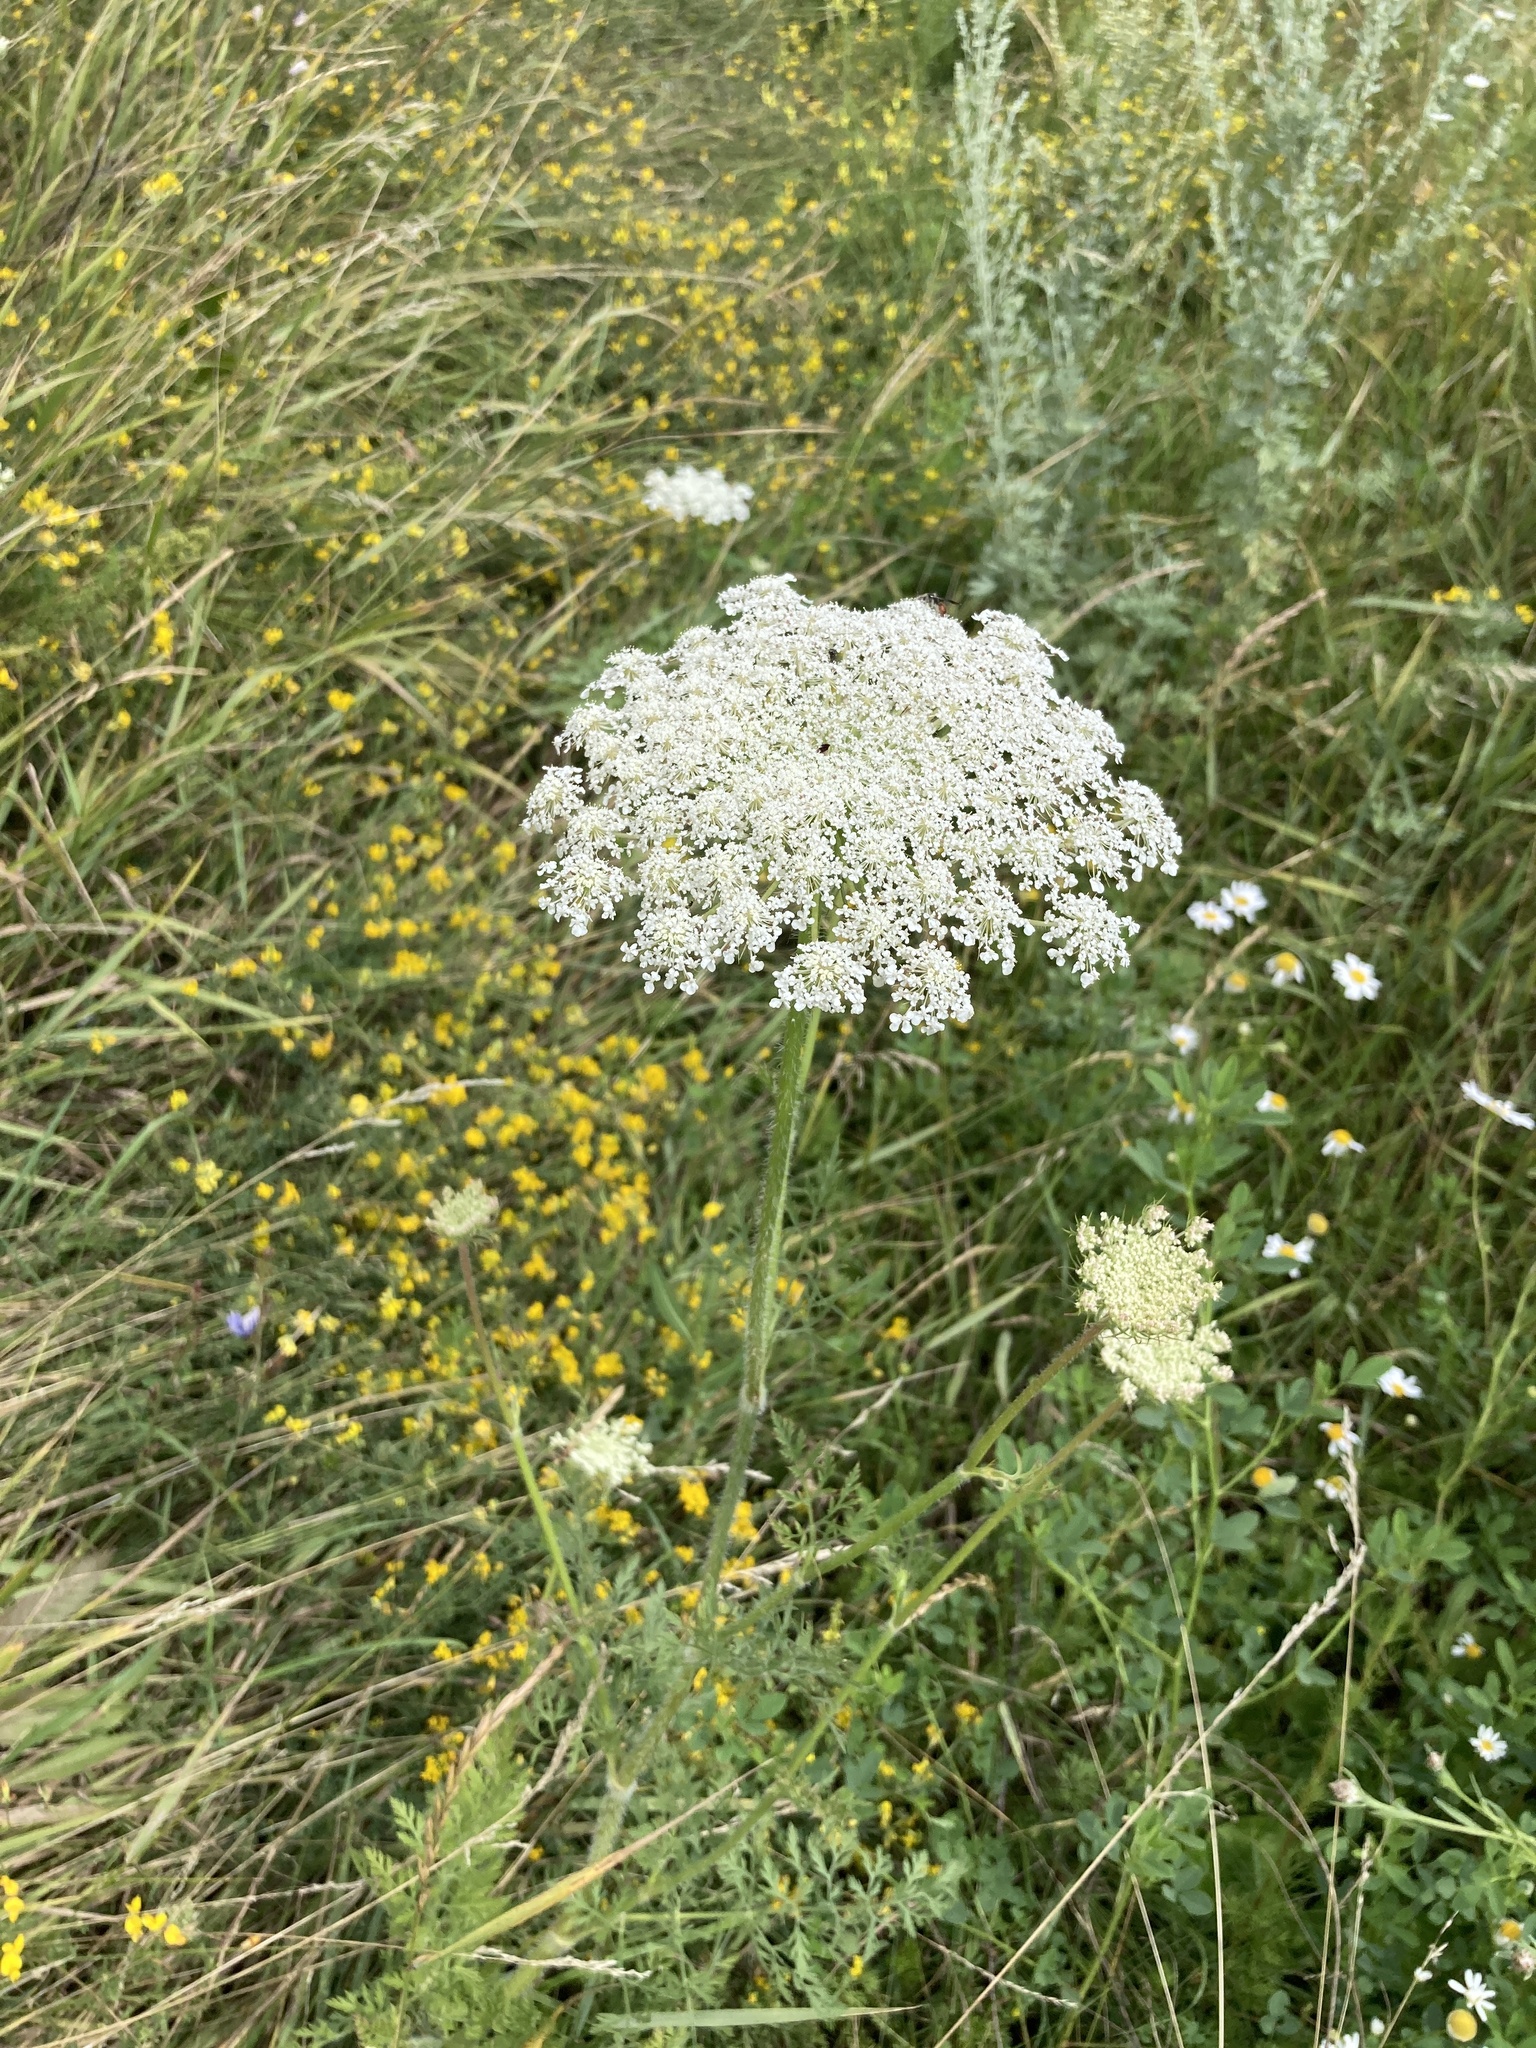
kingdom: Plantae
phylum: Tracheophyta
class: Magnoliopsida
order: Apiales
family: Apiaceae
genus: Daucus
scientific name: Daucus carota
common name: Wild carrot
